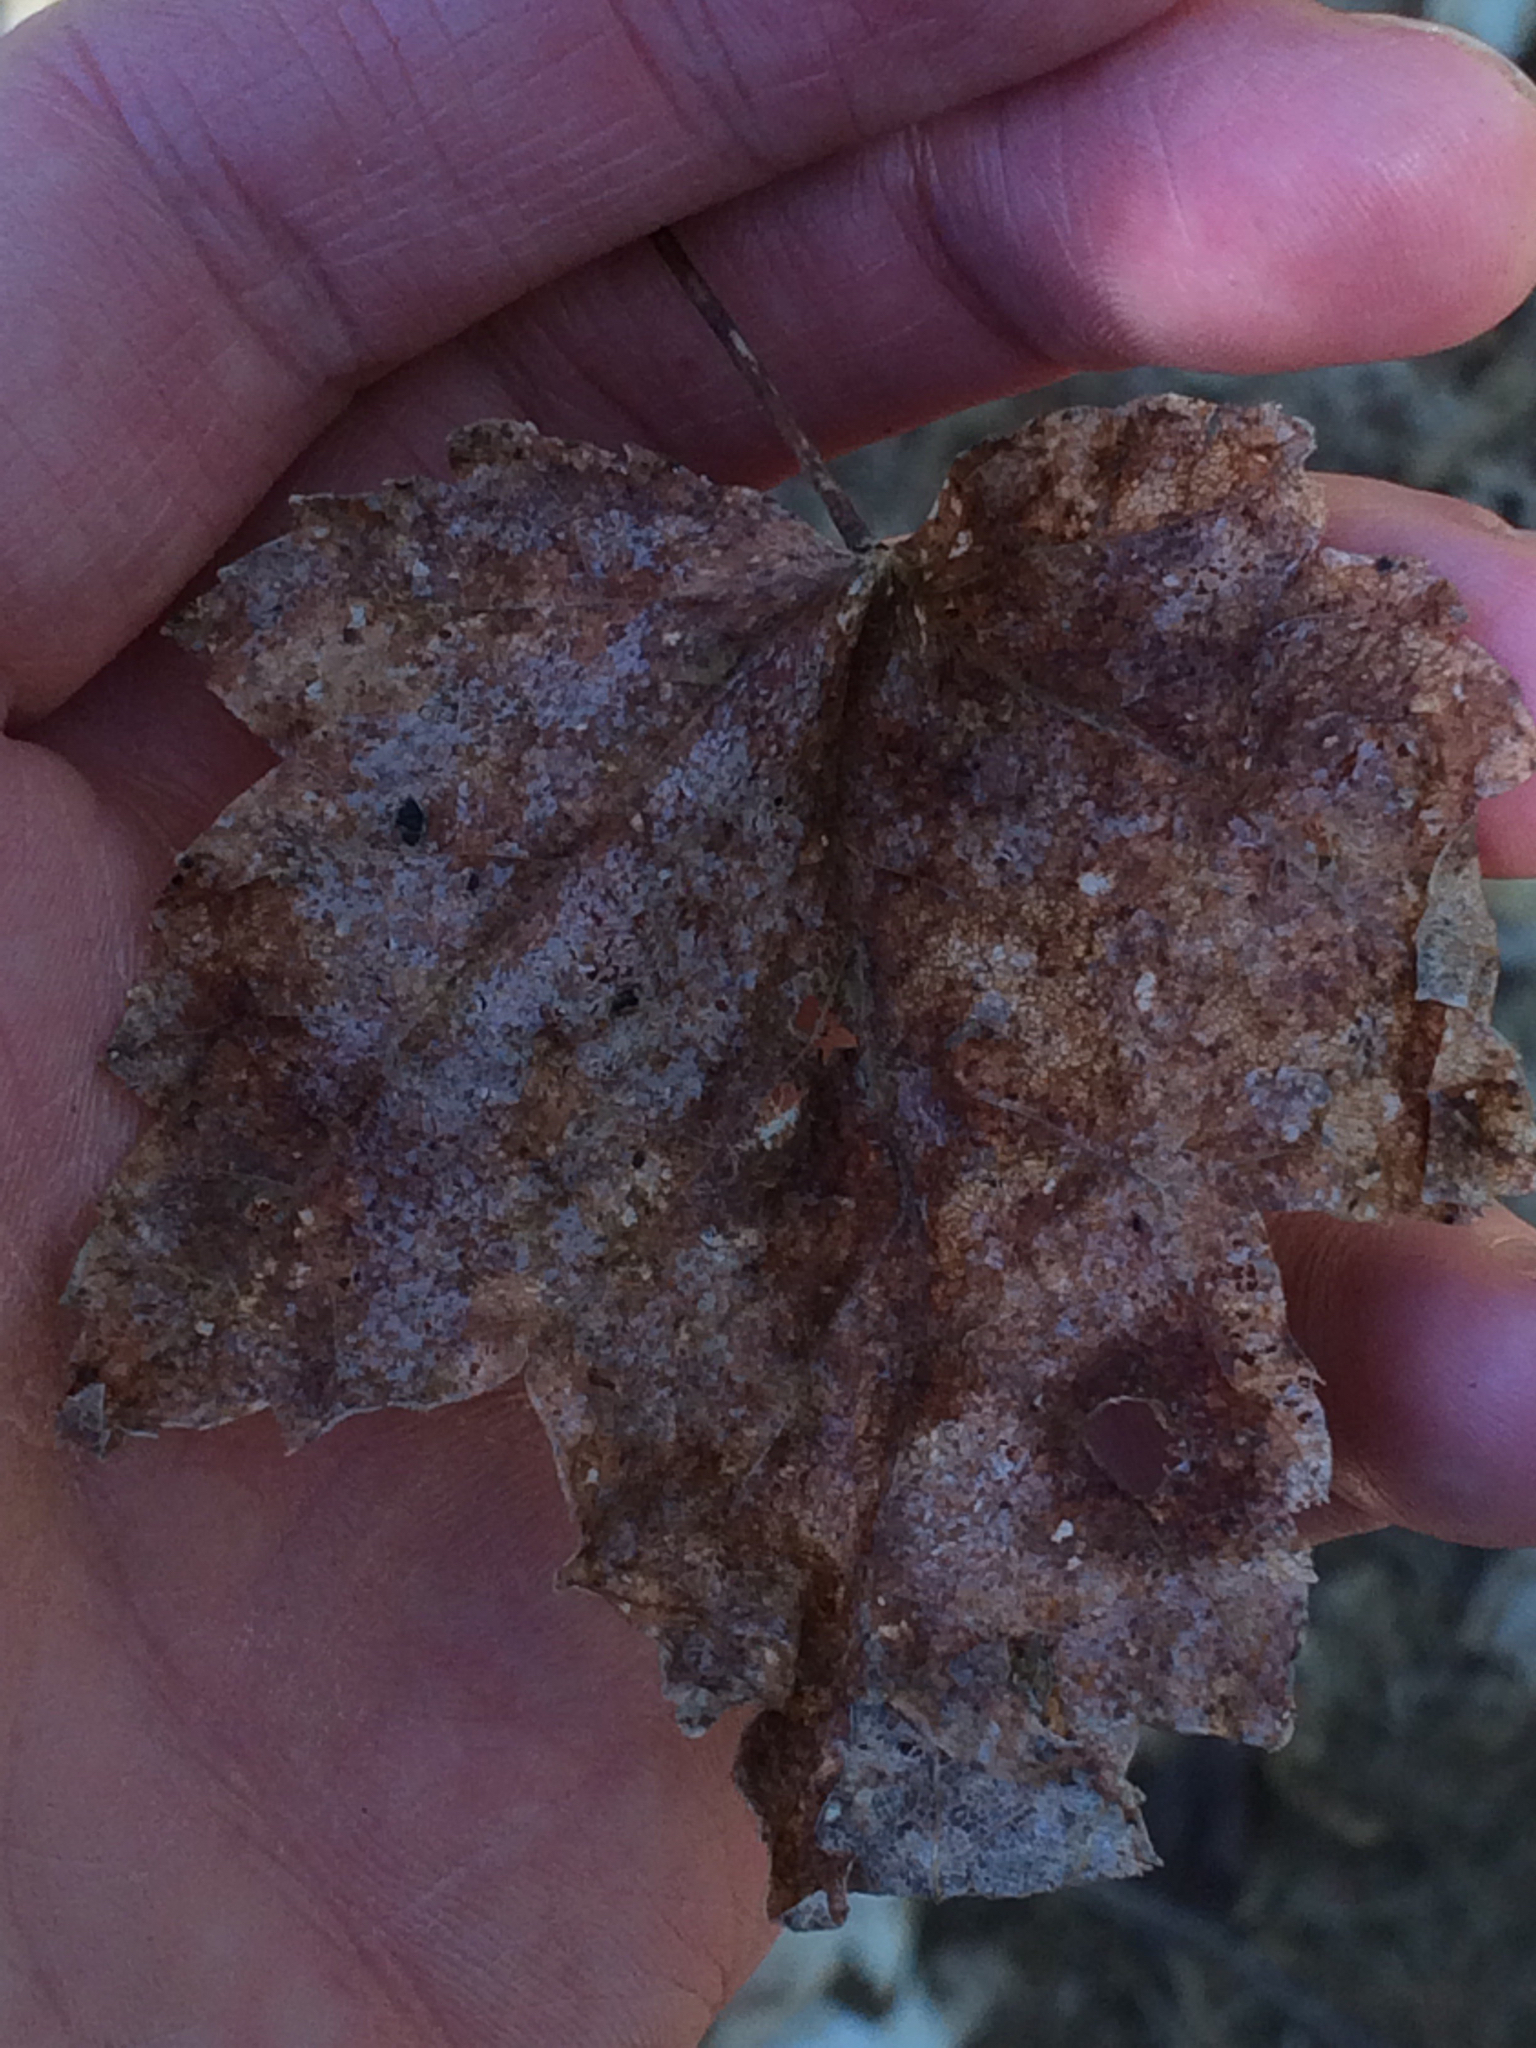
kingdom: Plantae
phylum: Tracheophyta
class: Magnoliopsida
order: Sapindales
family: Sapindaceae
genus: Acer
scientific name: Acer rubrum
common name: Red maple
